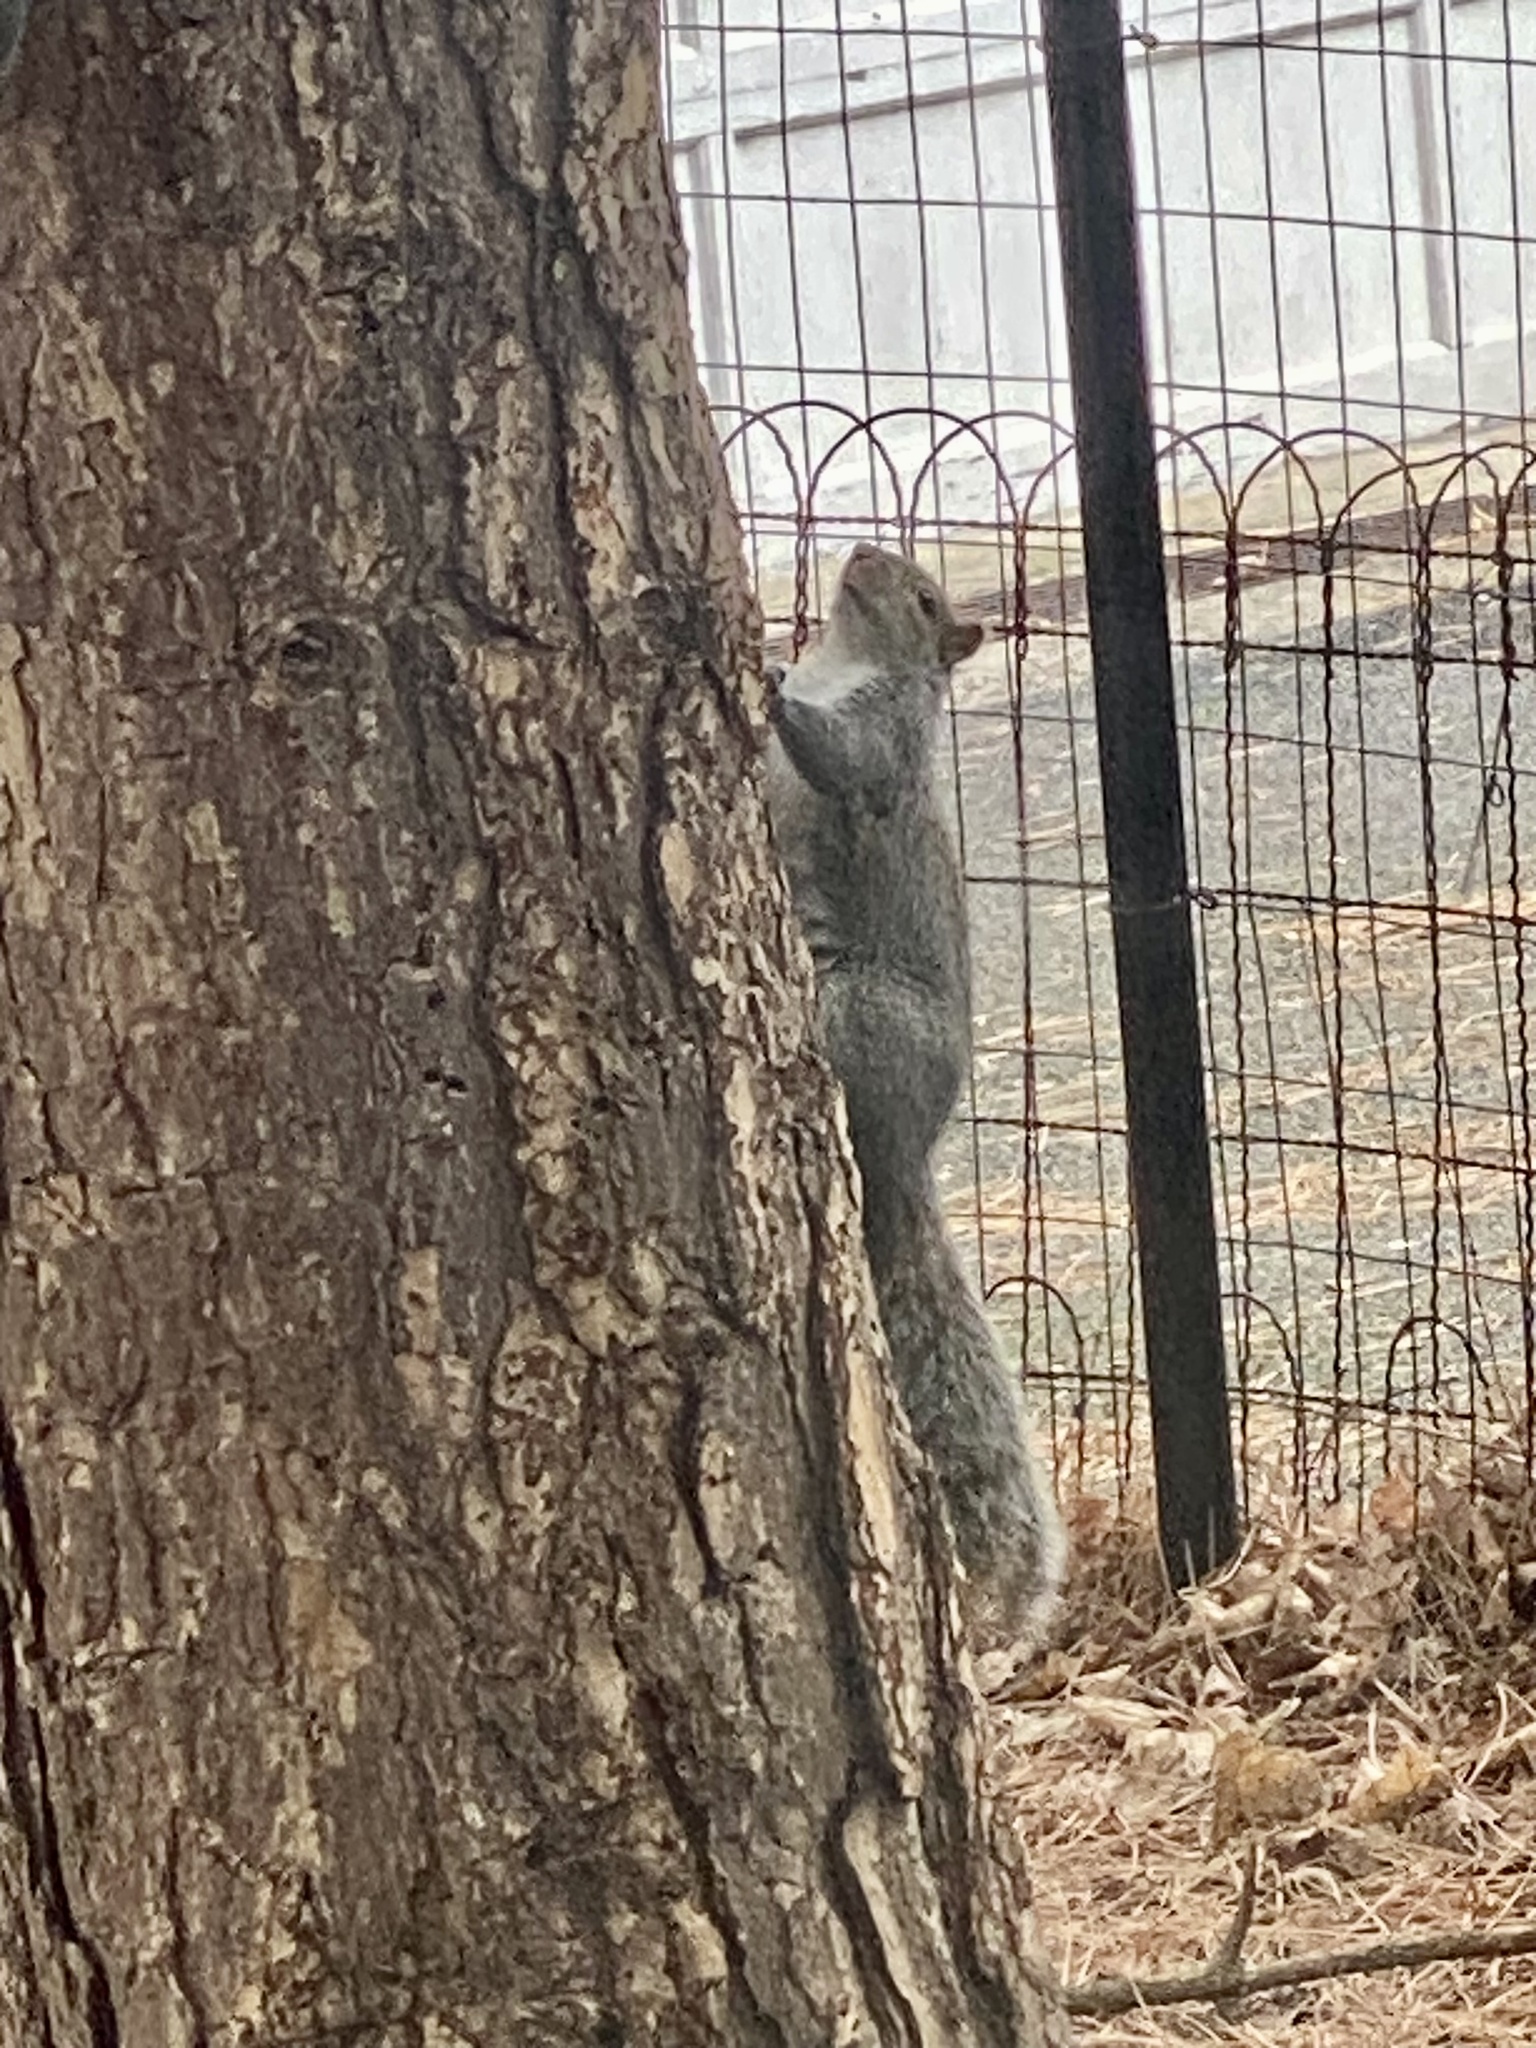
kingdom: Animalia
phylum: Chordata
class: Mammalia
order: Rodentia
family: Sciuridae
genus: Sciurus
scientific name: Sciurus carolinensis
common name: Eastern gray squirrel
